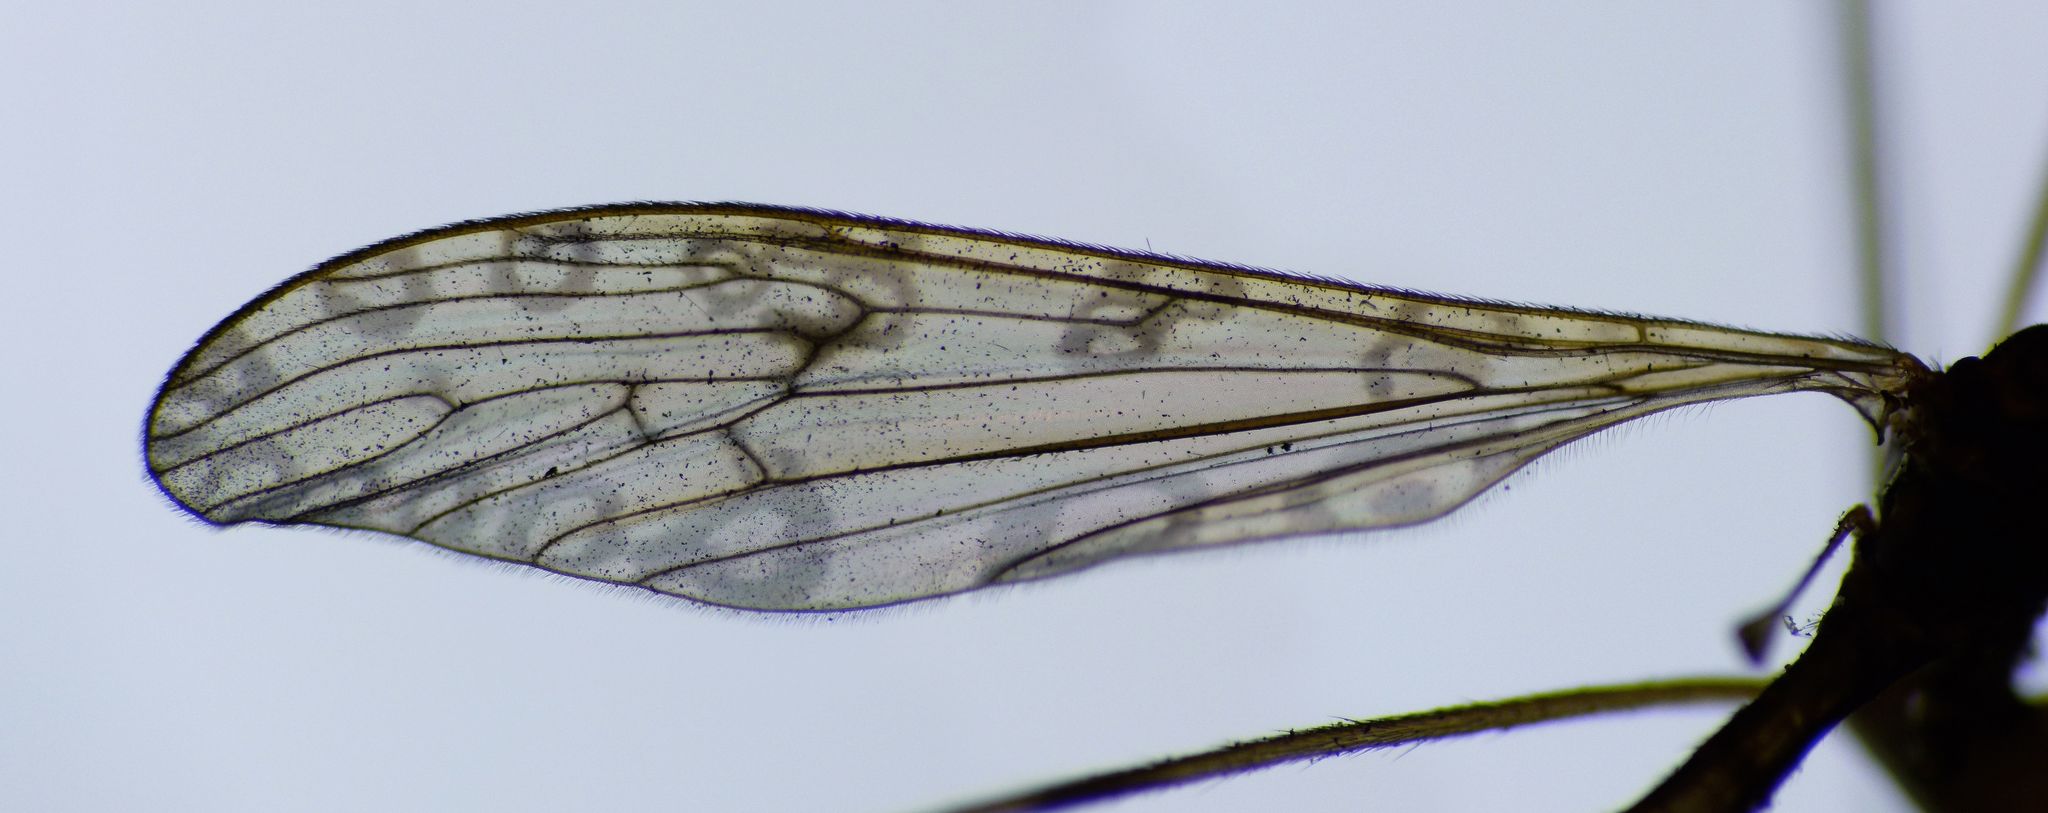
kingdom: Animalia
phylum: Arthropoda
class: Insecta
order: Diptera
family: Limoniidae
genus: Austrolimnophila
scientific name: Austrolimnophila stewartiae
